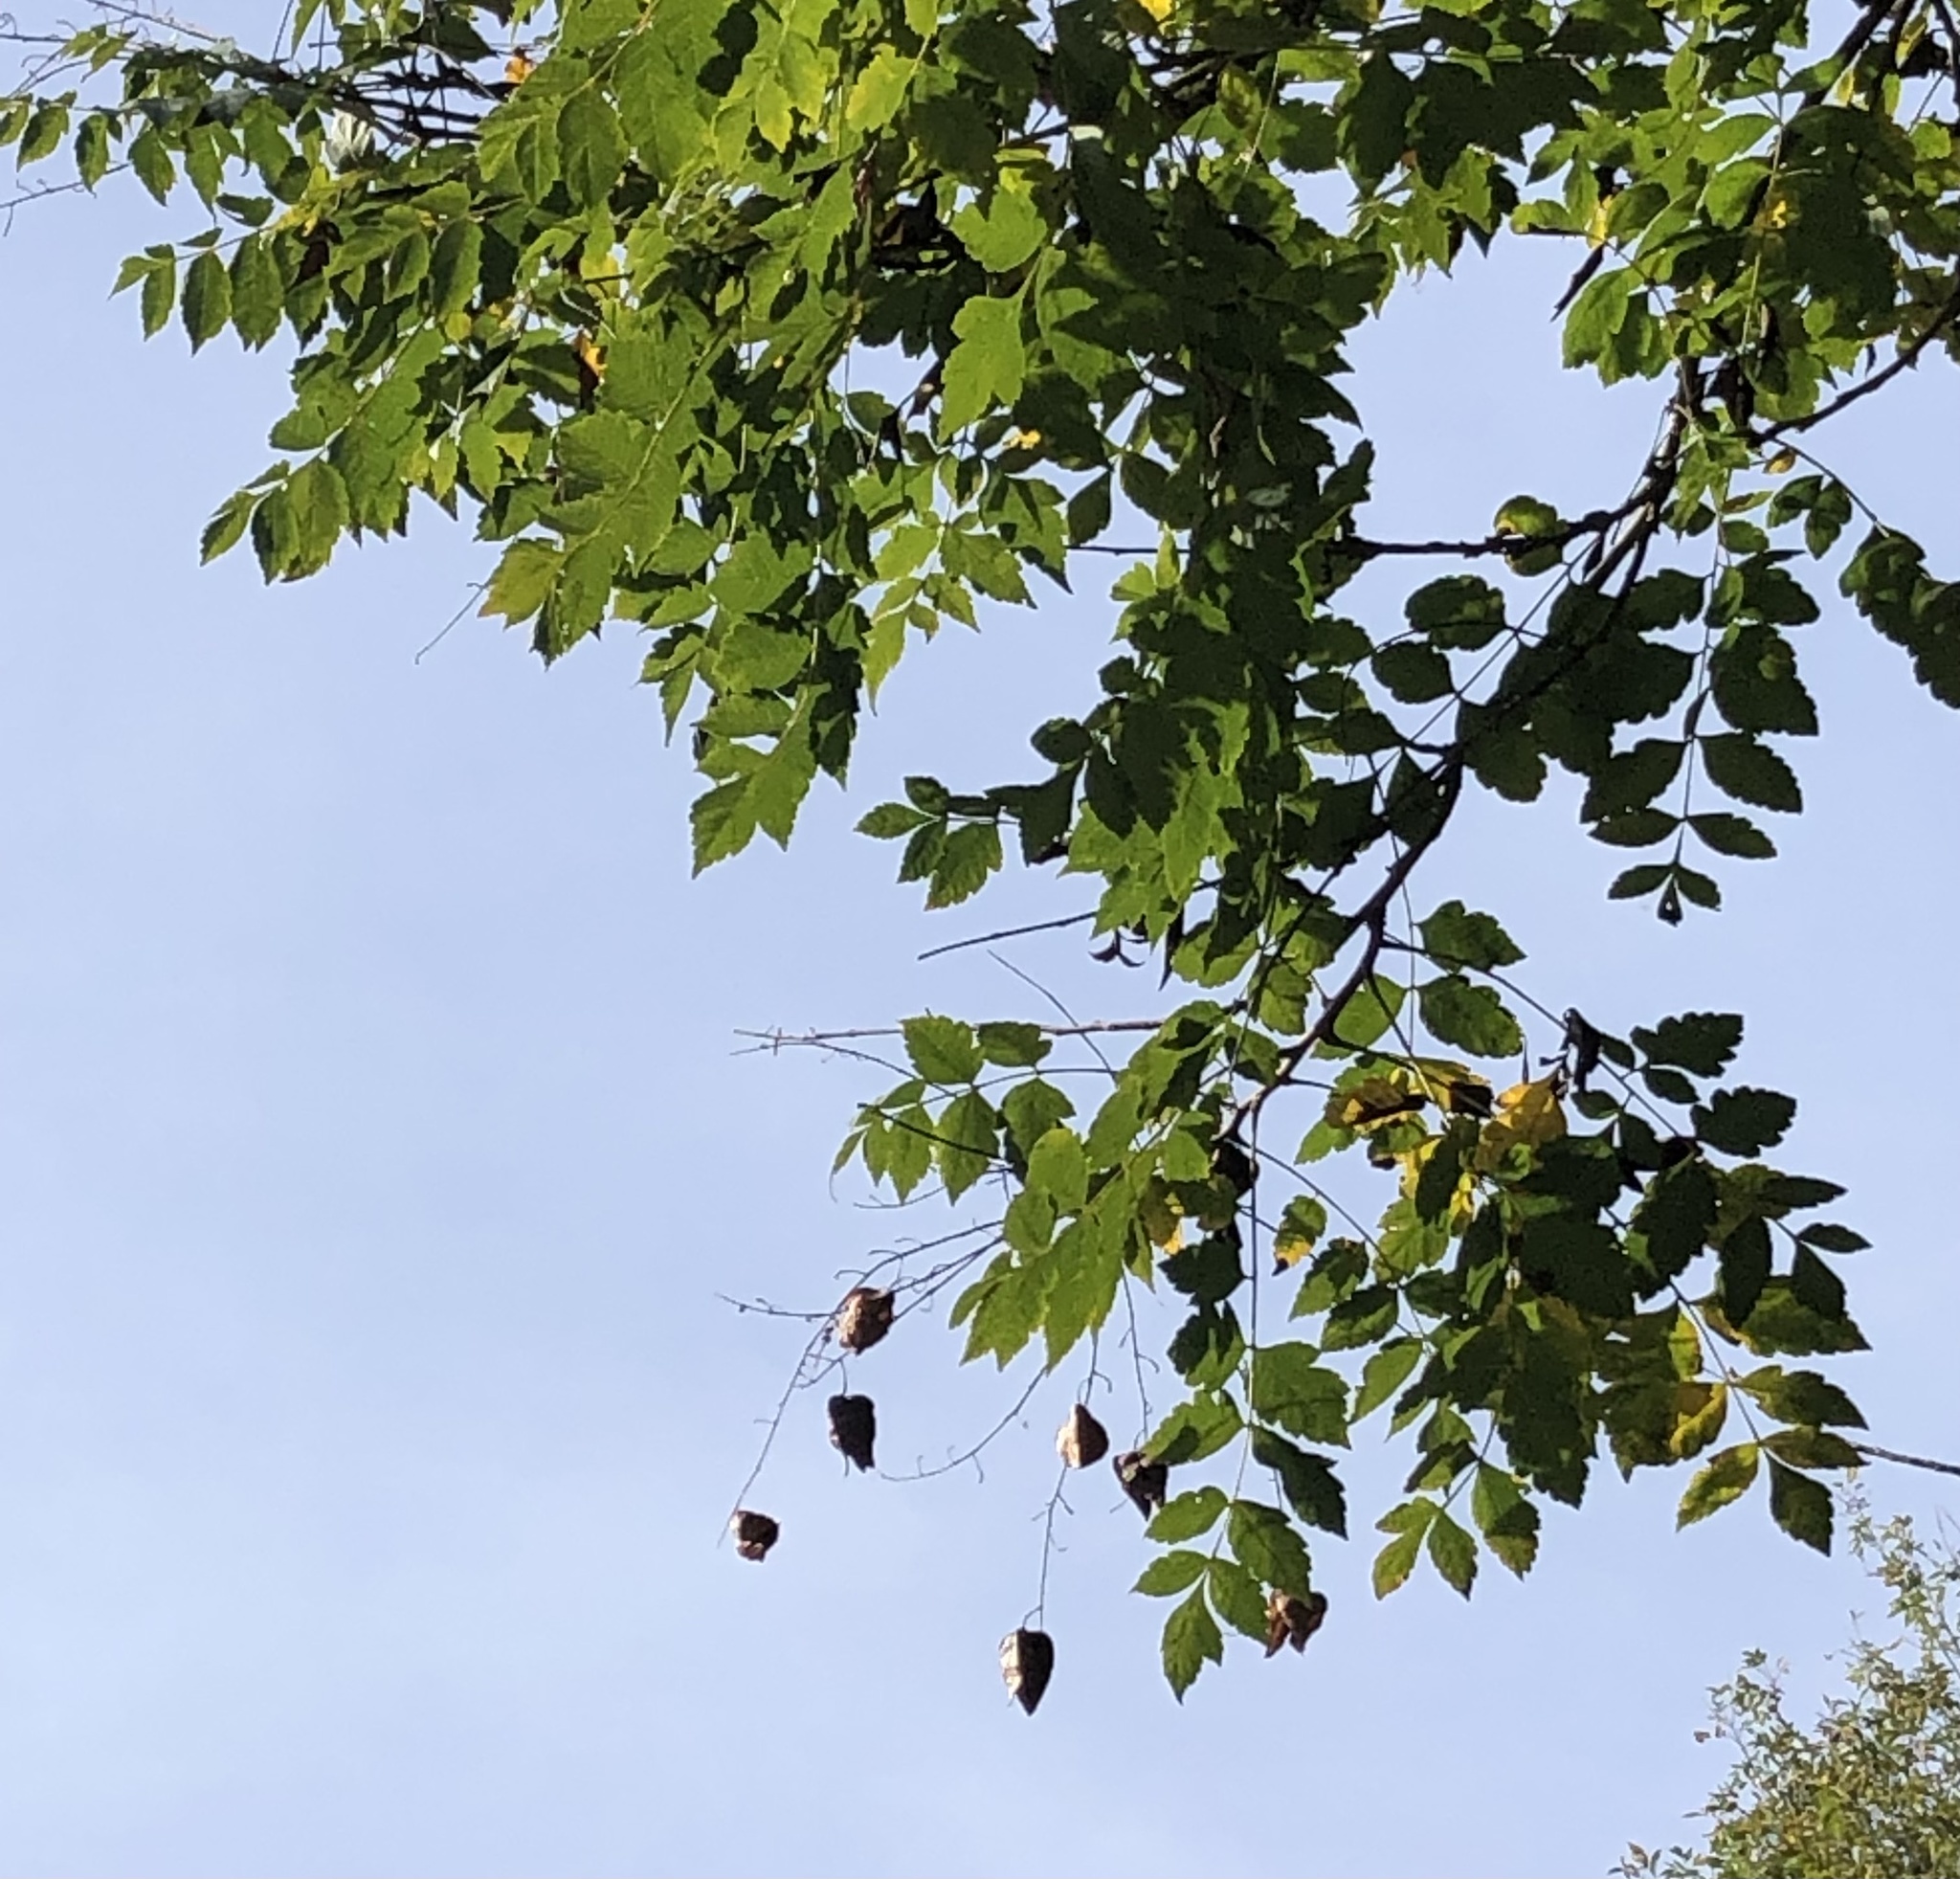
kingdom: Plantae
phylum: Tracheophyta
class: Magnoliopsida
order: Sapindales
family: Sapindaceae
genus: Koelreuteria
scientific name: Koelreuteria paniculata
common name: Pride-of-india
